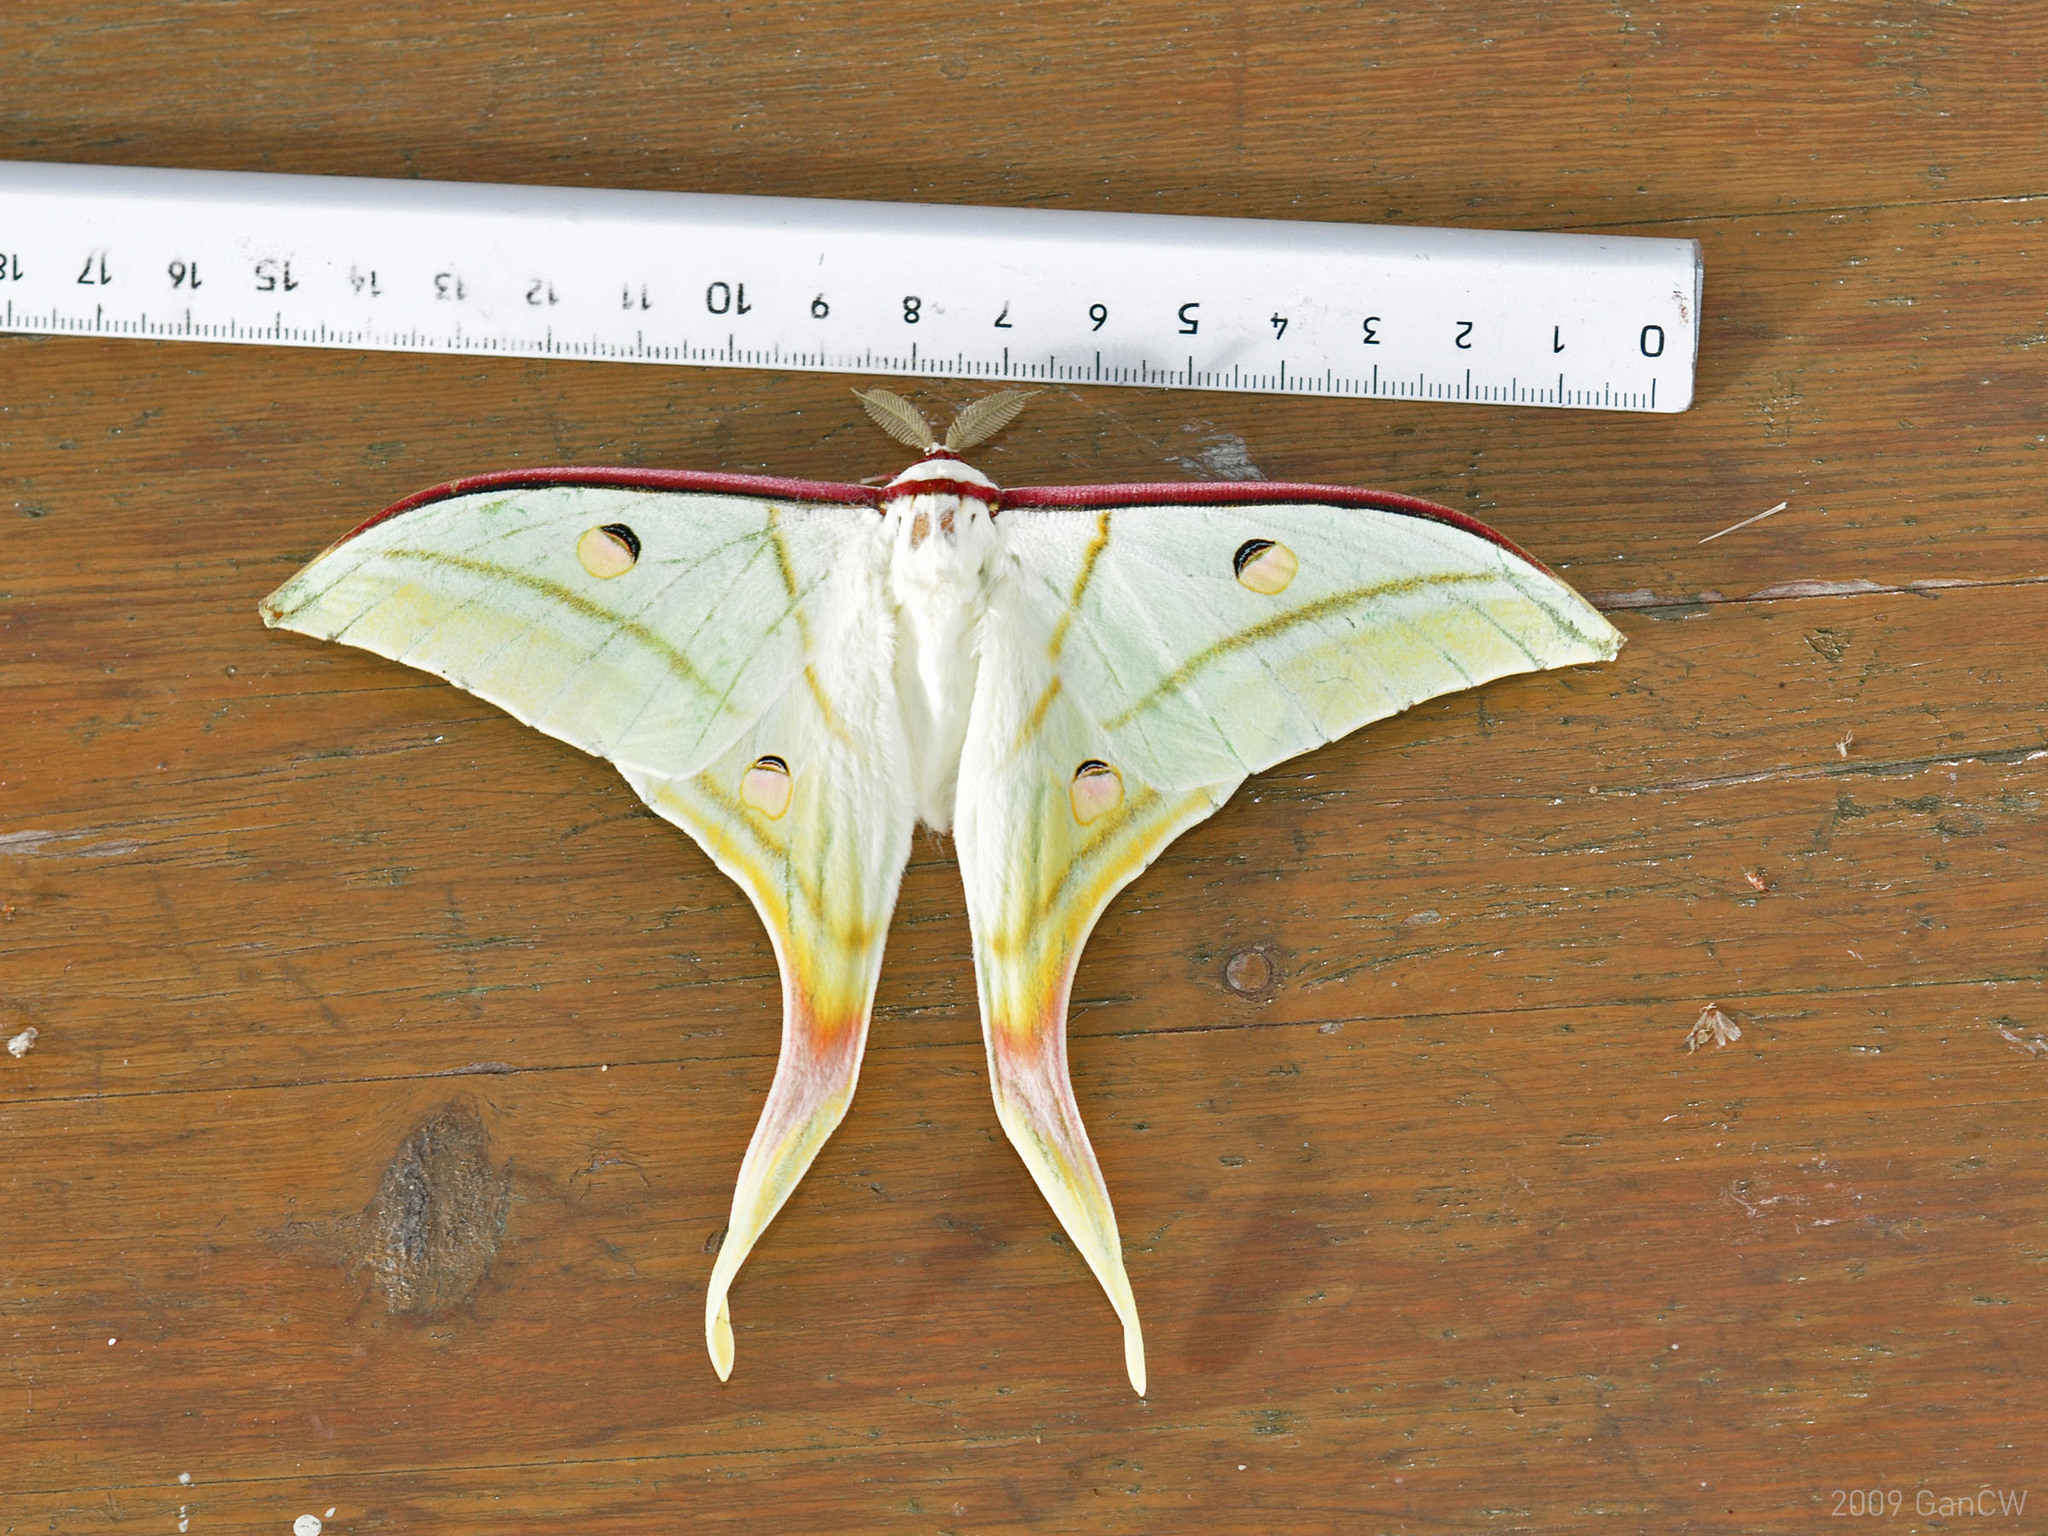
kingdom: Animalia
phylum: Arthropoda
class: Insecta
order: Lepidoptera
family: Saturniidae
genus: Actias
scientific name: Actias selene
